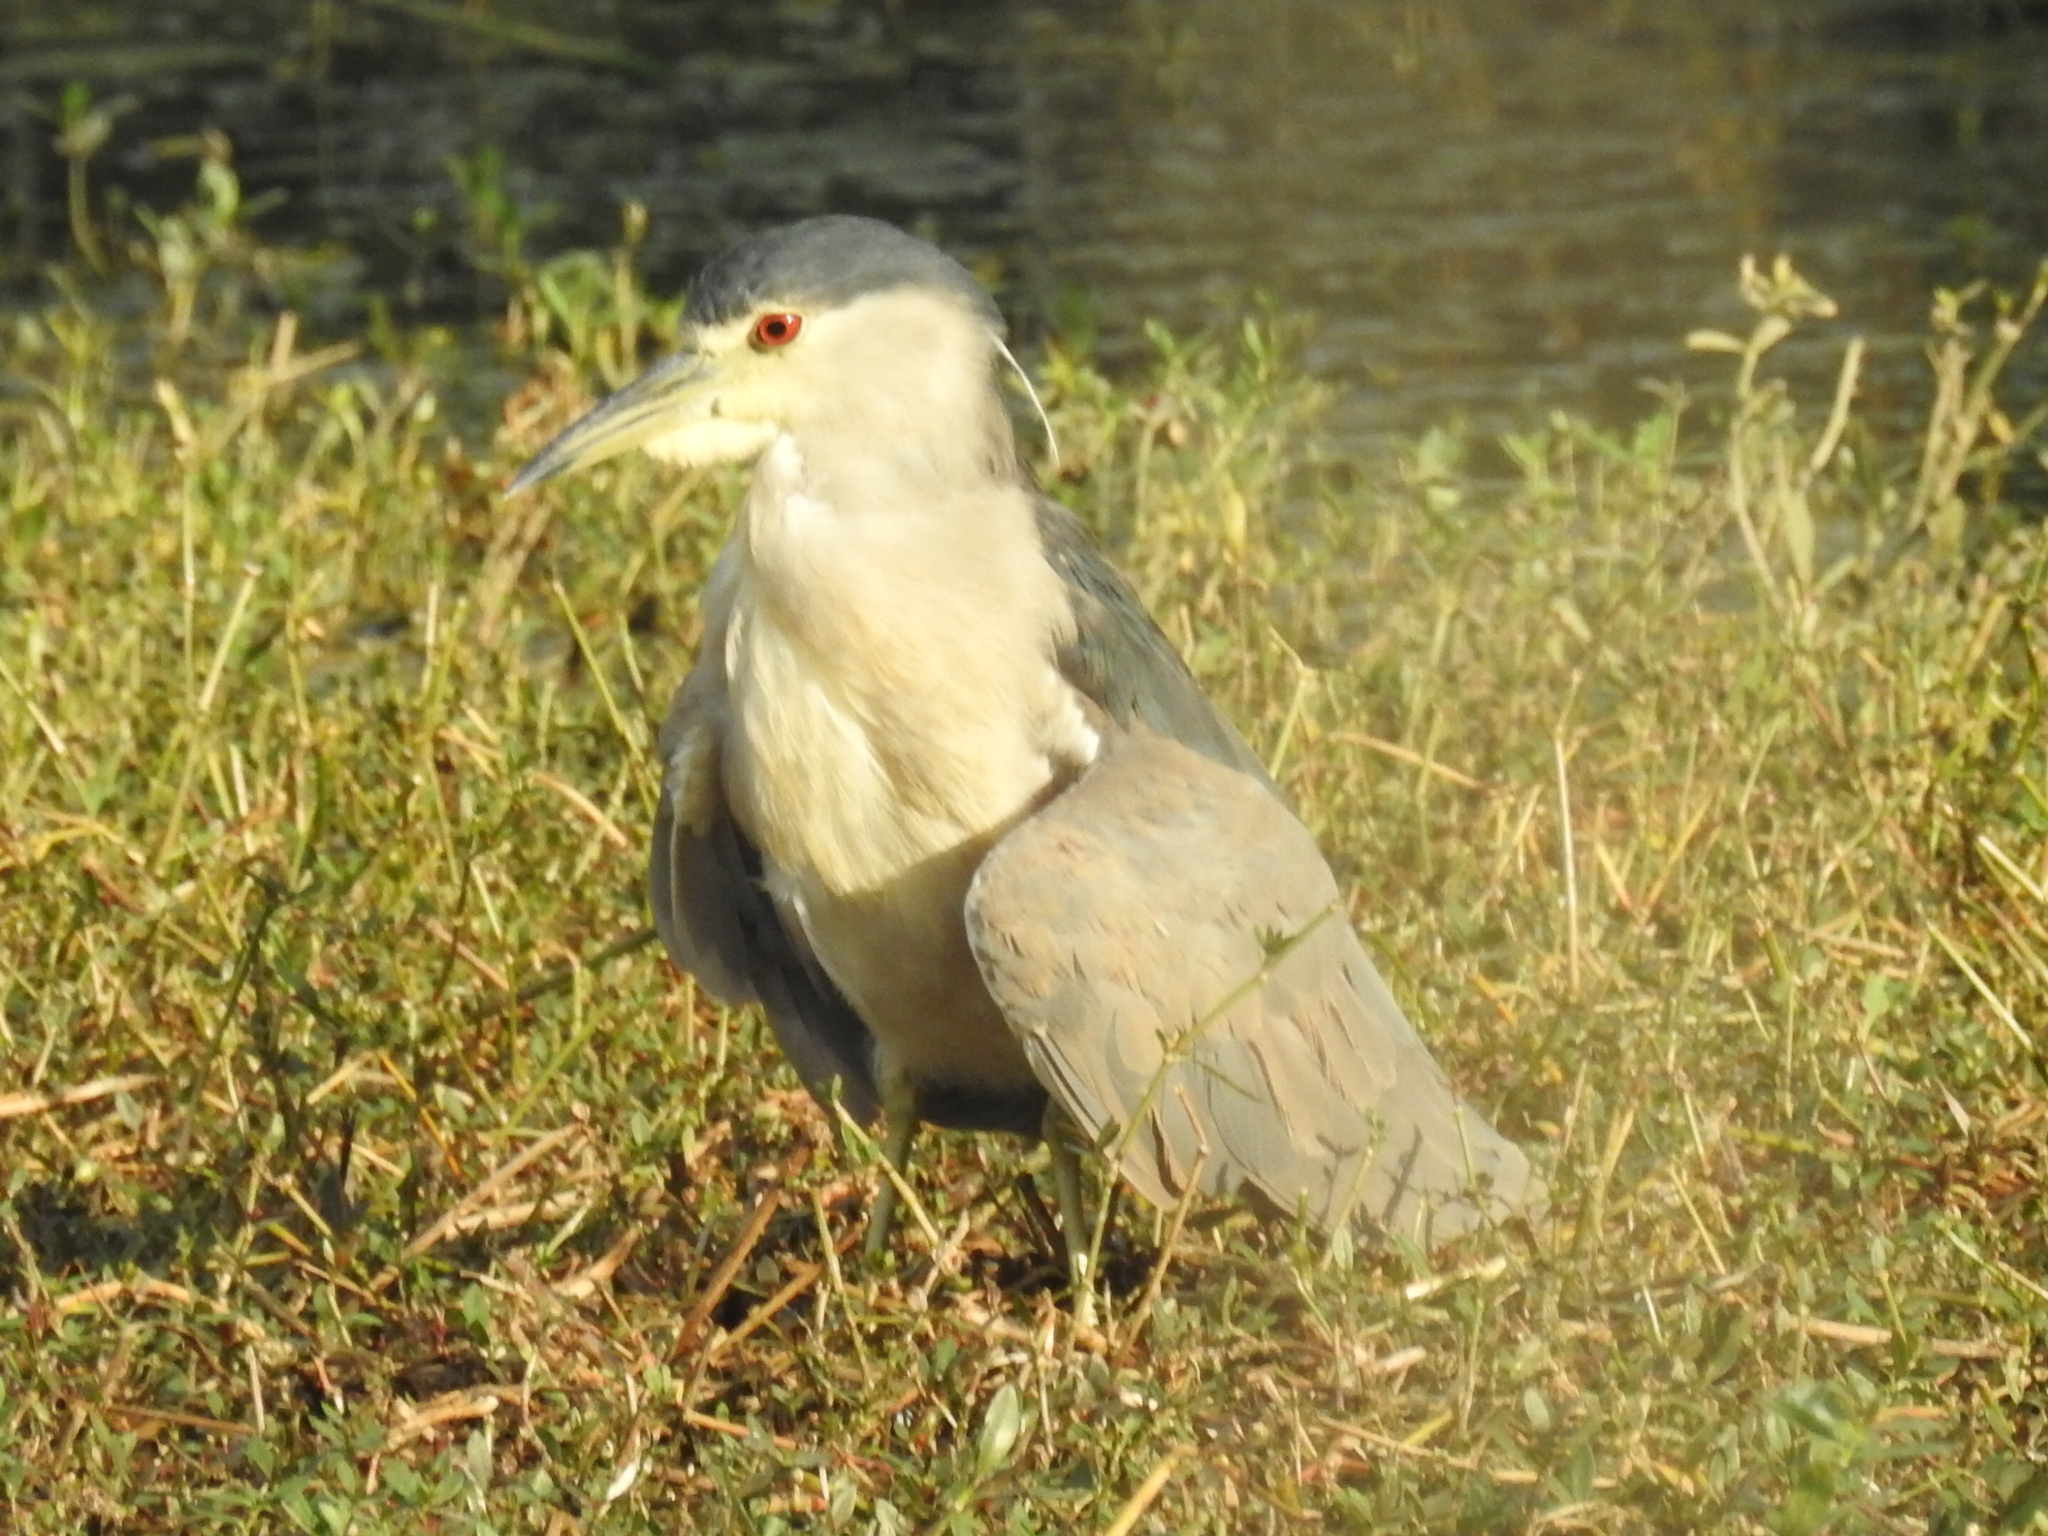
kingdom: Animalia
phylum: Chordata
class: Aves
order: Pelecaniformes
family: Ardeidae
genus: Nycticorax
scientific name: Nycticorax nycticorax
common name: Black-crowned night heron
